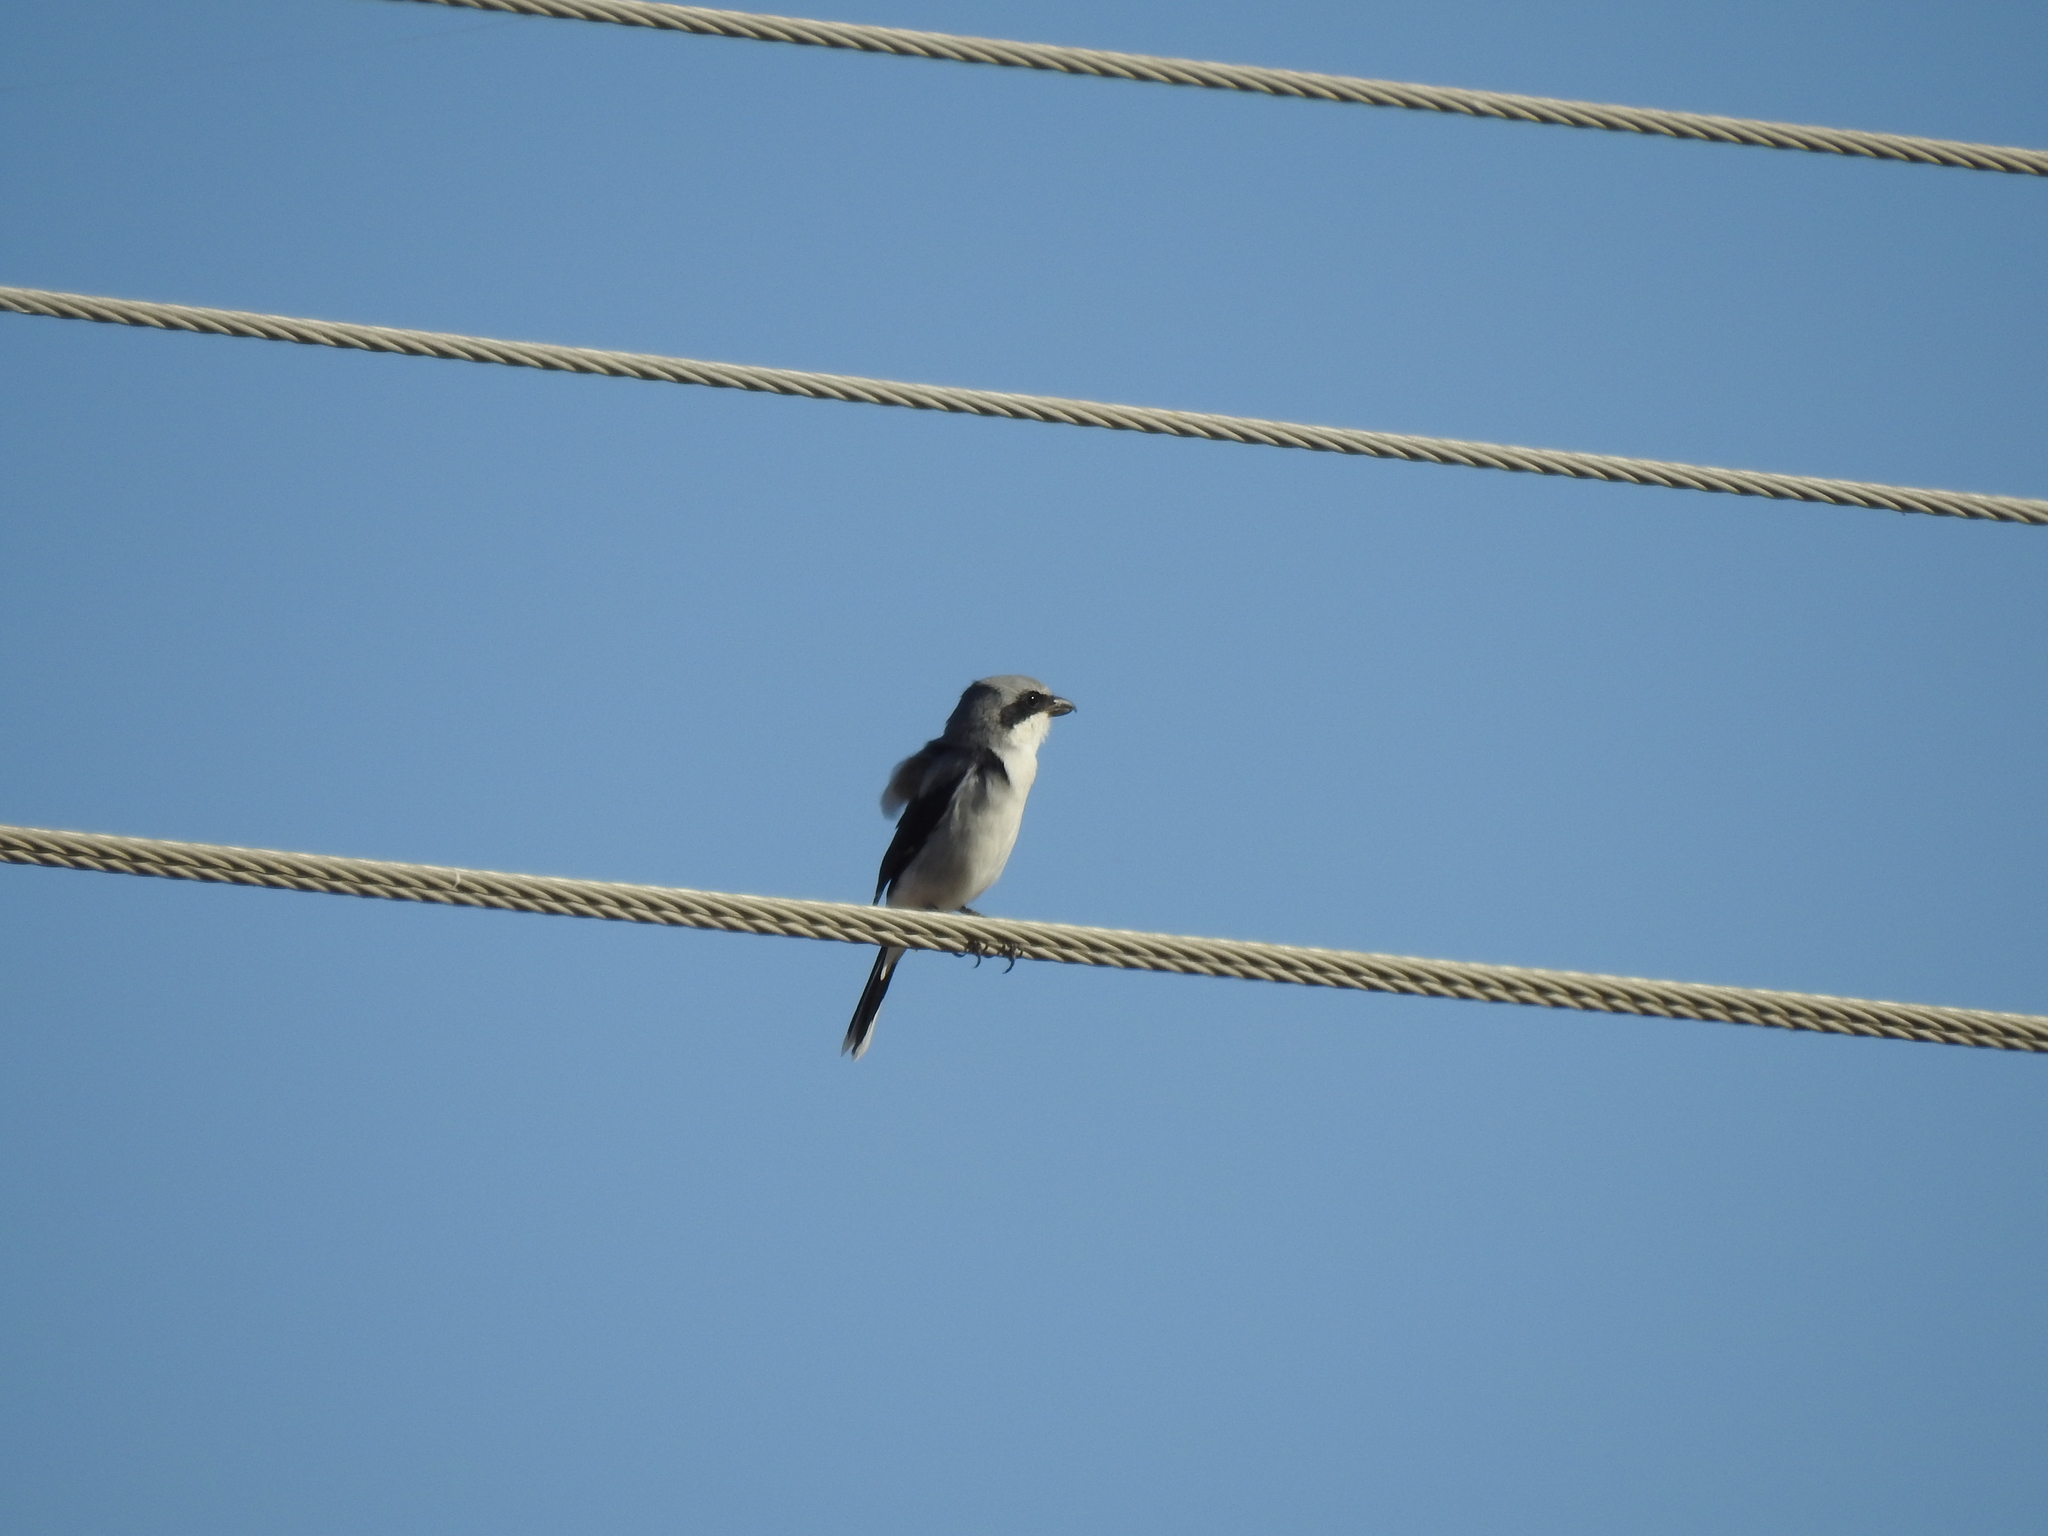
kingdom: Animalia
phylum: Chordata
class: Aves
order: Passeriformes
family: Laniidae
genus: Lanius
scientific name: Lanius ludovicianus
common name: Loggerhead shrike
